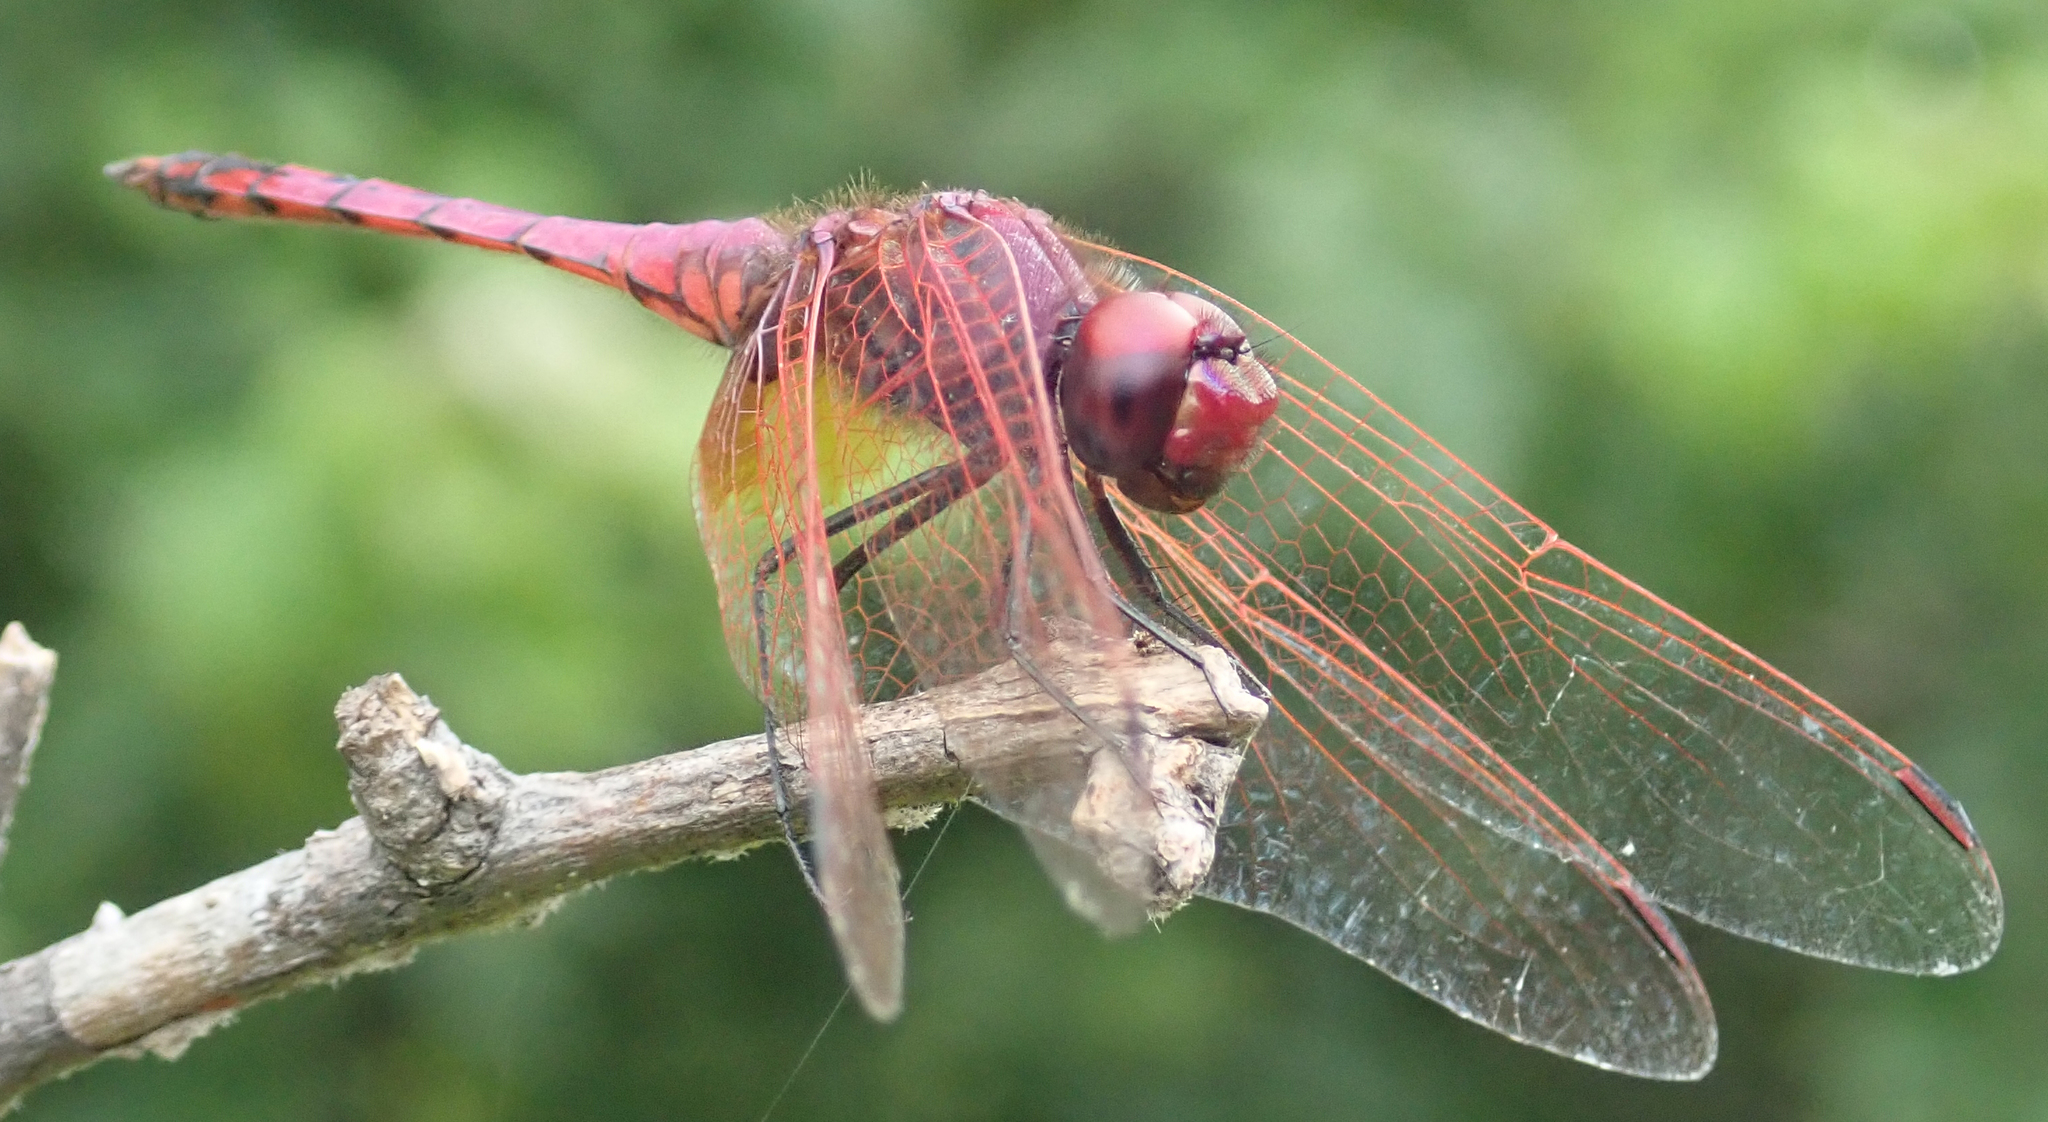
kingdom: Animalia
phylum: Arthropoda
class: Insecta
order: Odonata
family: Libellulidae
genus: Trithemis
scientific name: Trithemis annulata
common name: Violet dropwing
